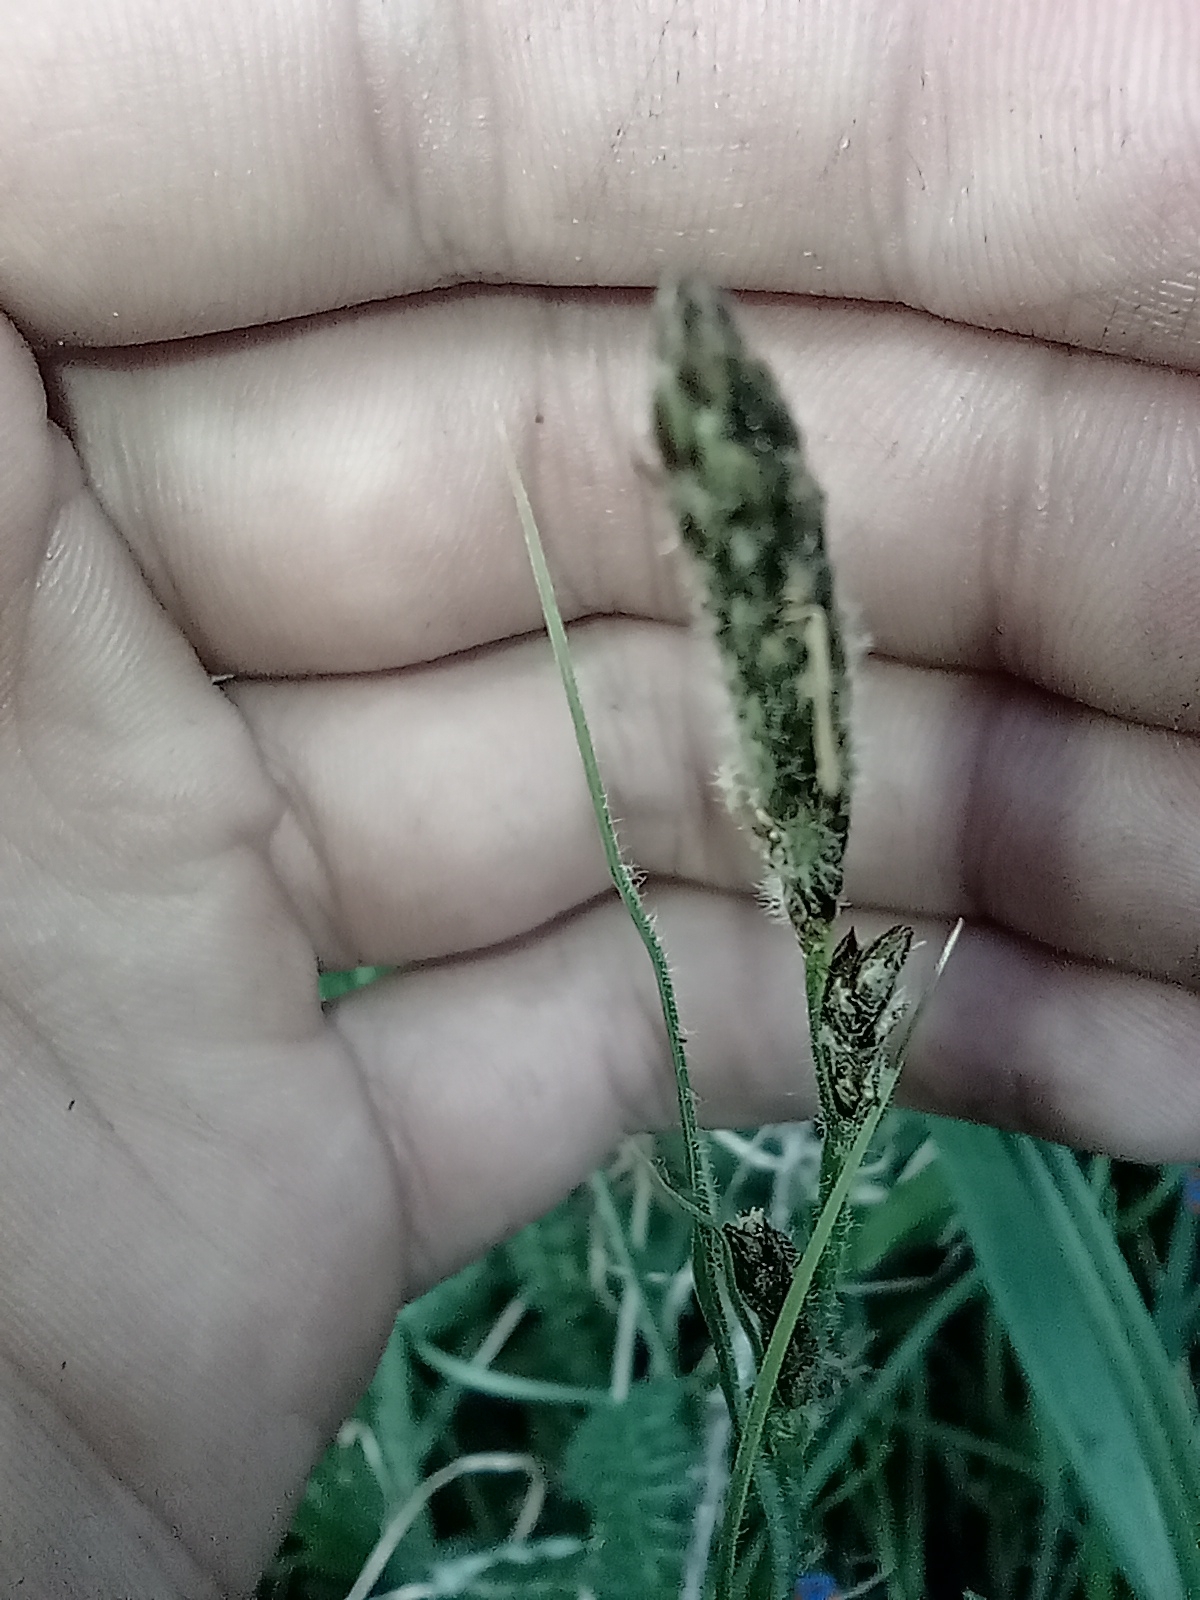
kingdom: Plantae
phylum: Tracheophyta
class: Liliopsida
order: Poales
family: Cyperaceae
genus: Carex
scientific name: Carex hirta
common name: Hairy sedge
